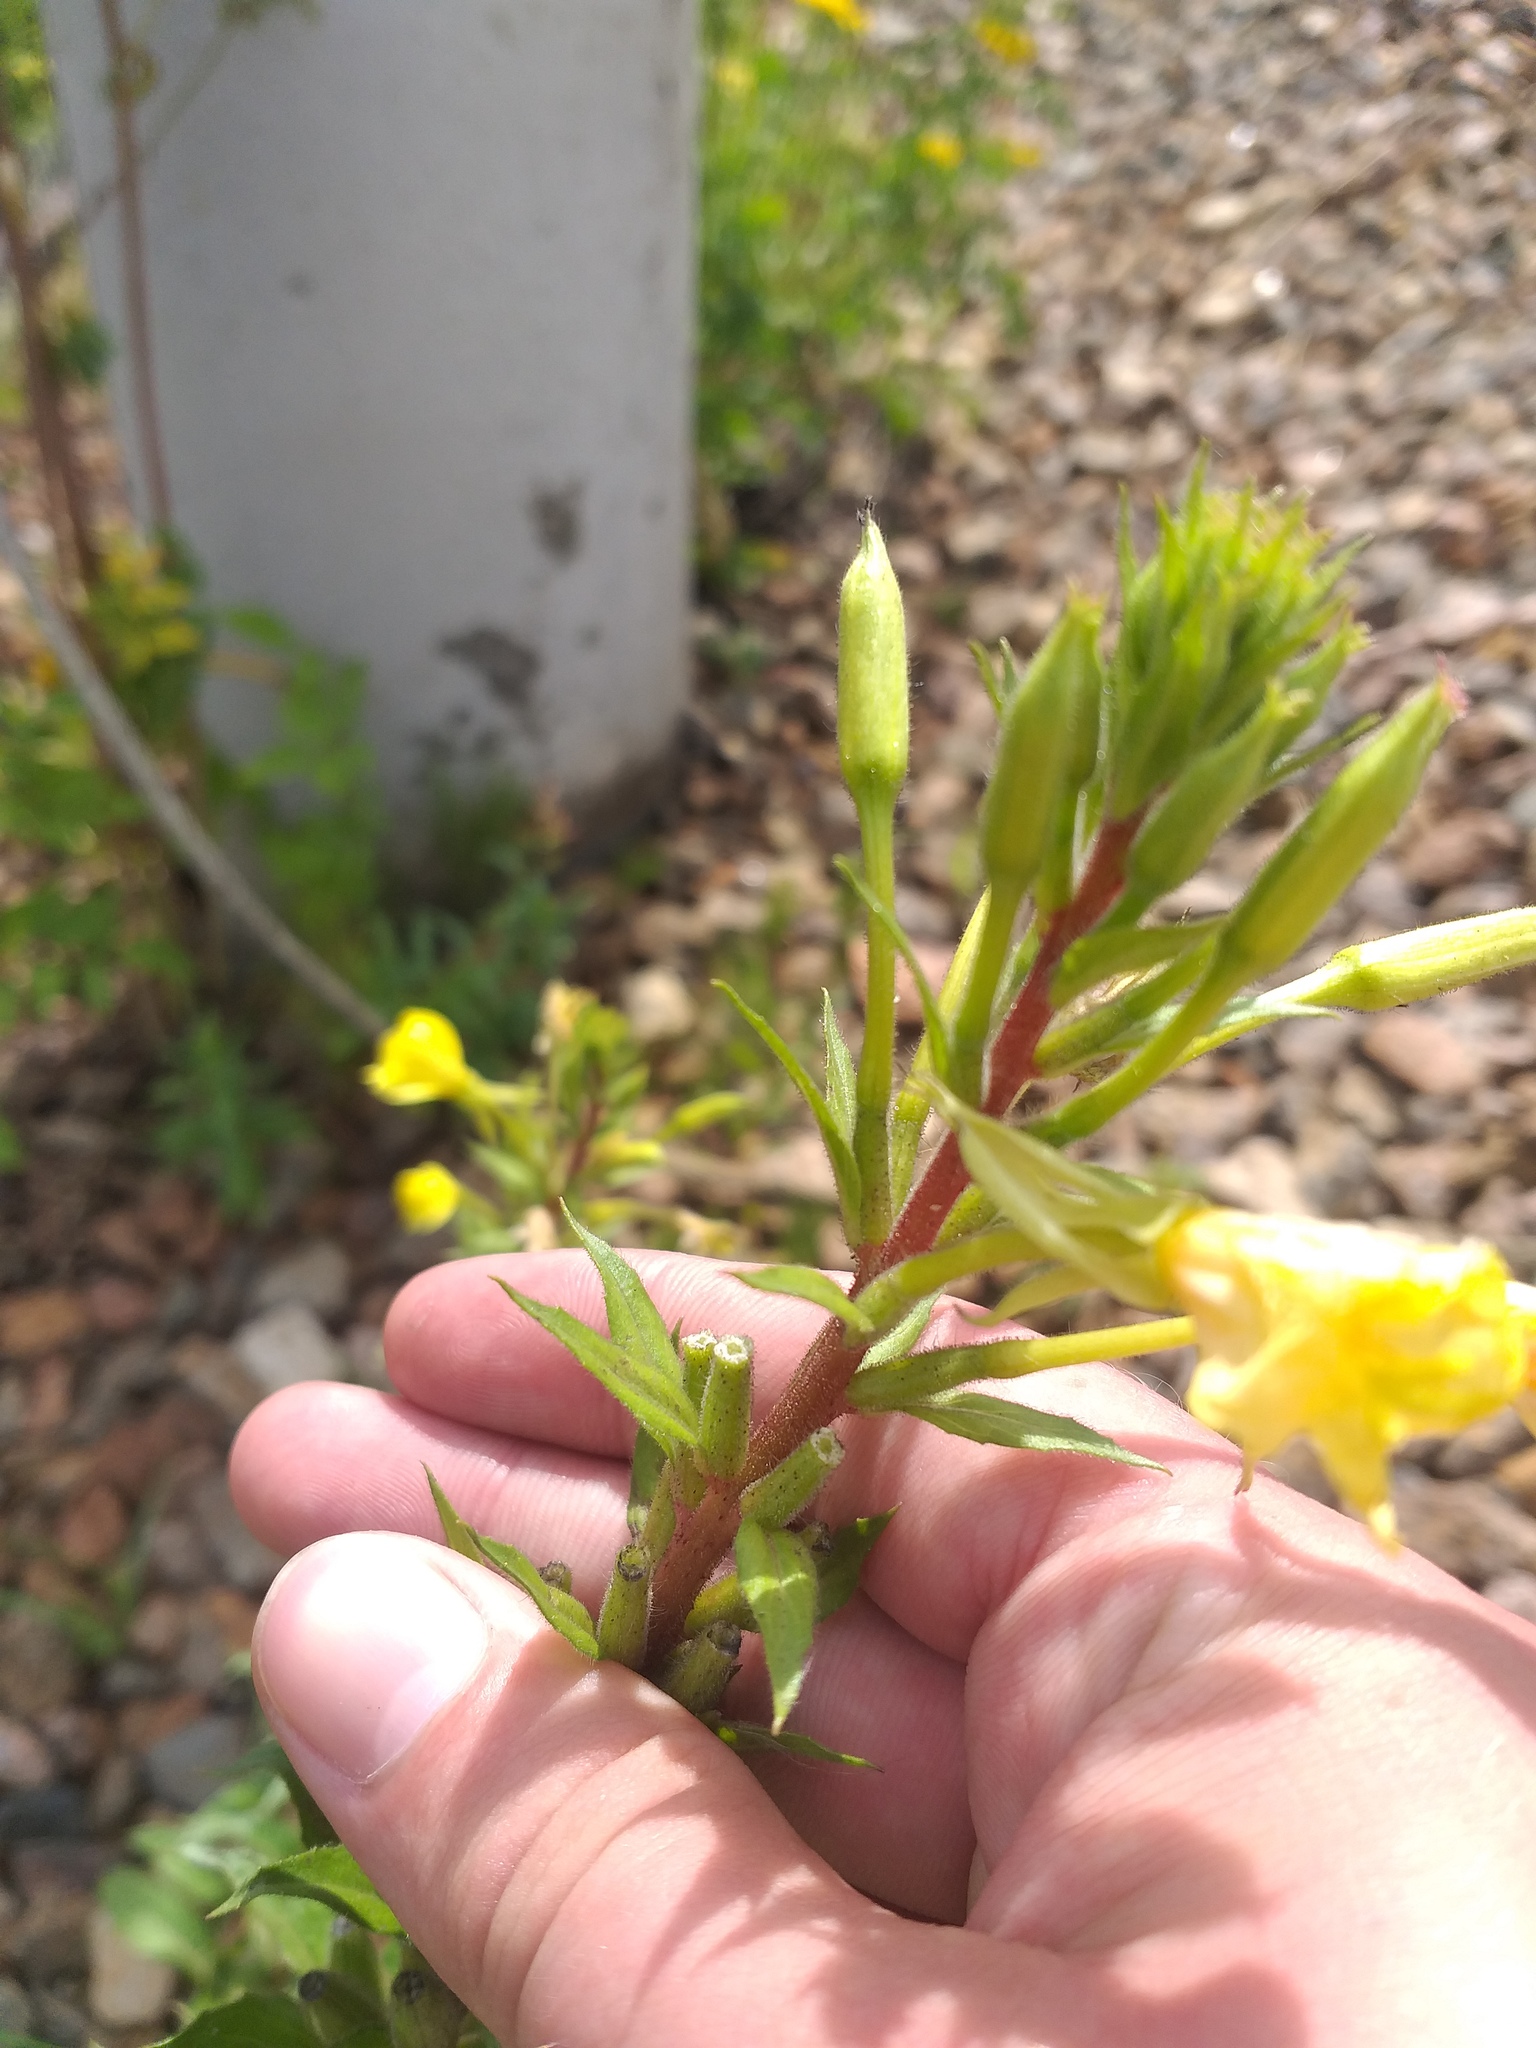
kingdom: Plantae
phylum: Tracheophyta
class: Magnoliopsida
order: Myrtales
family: Onagraceae
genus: Oenothera
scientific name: Oenothera rubricaulis
